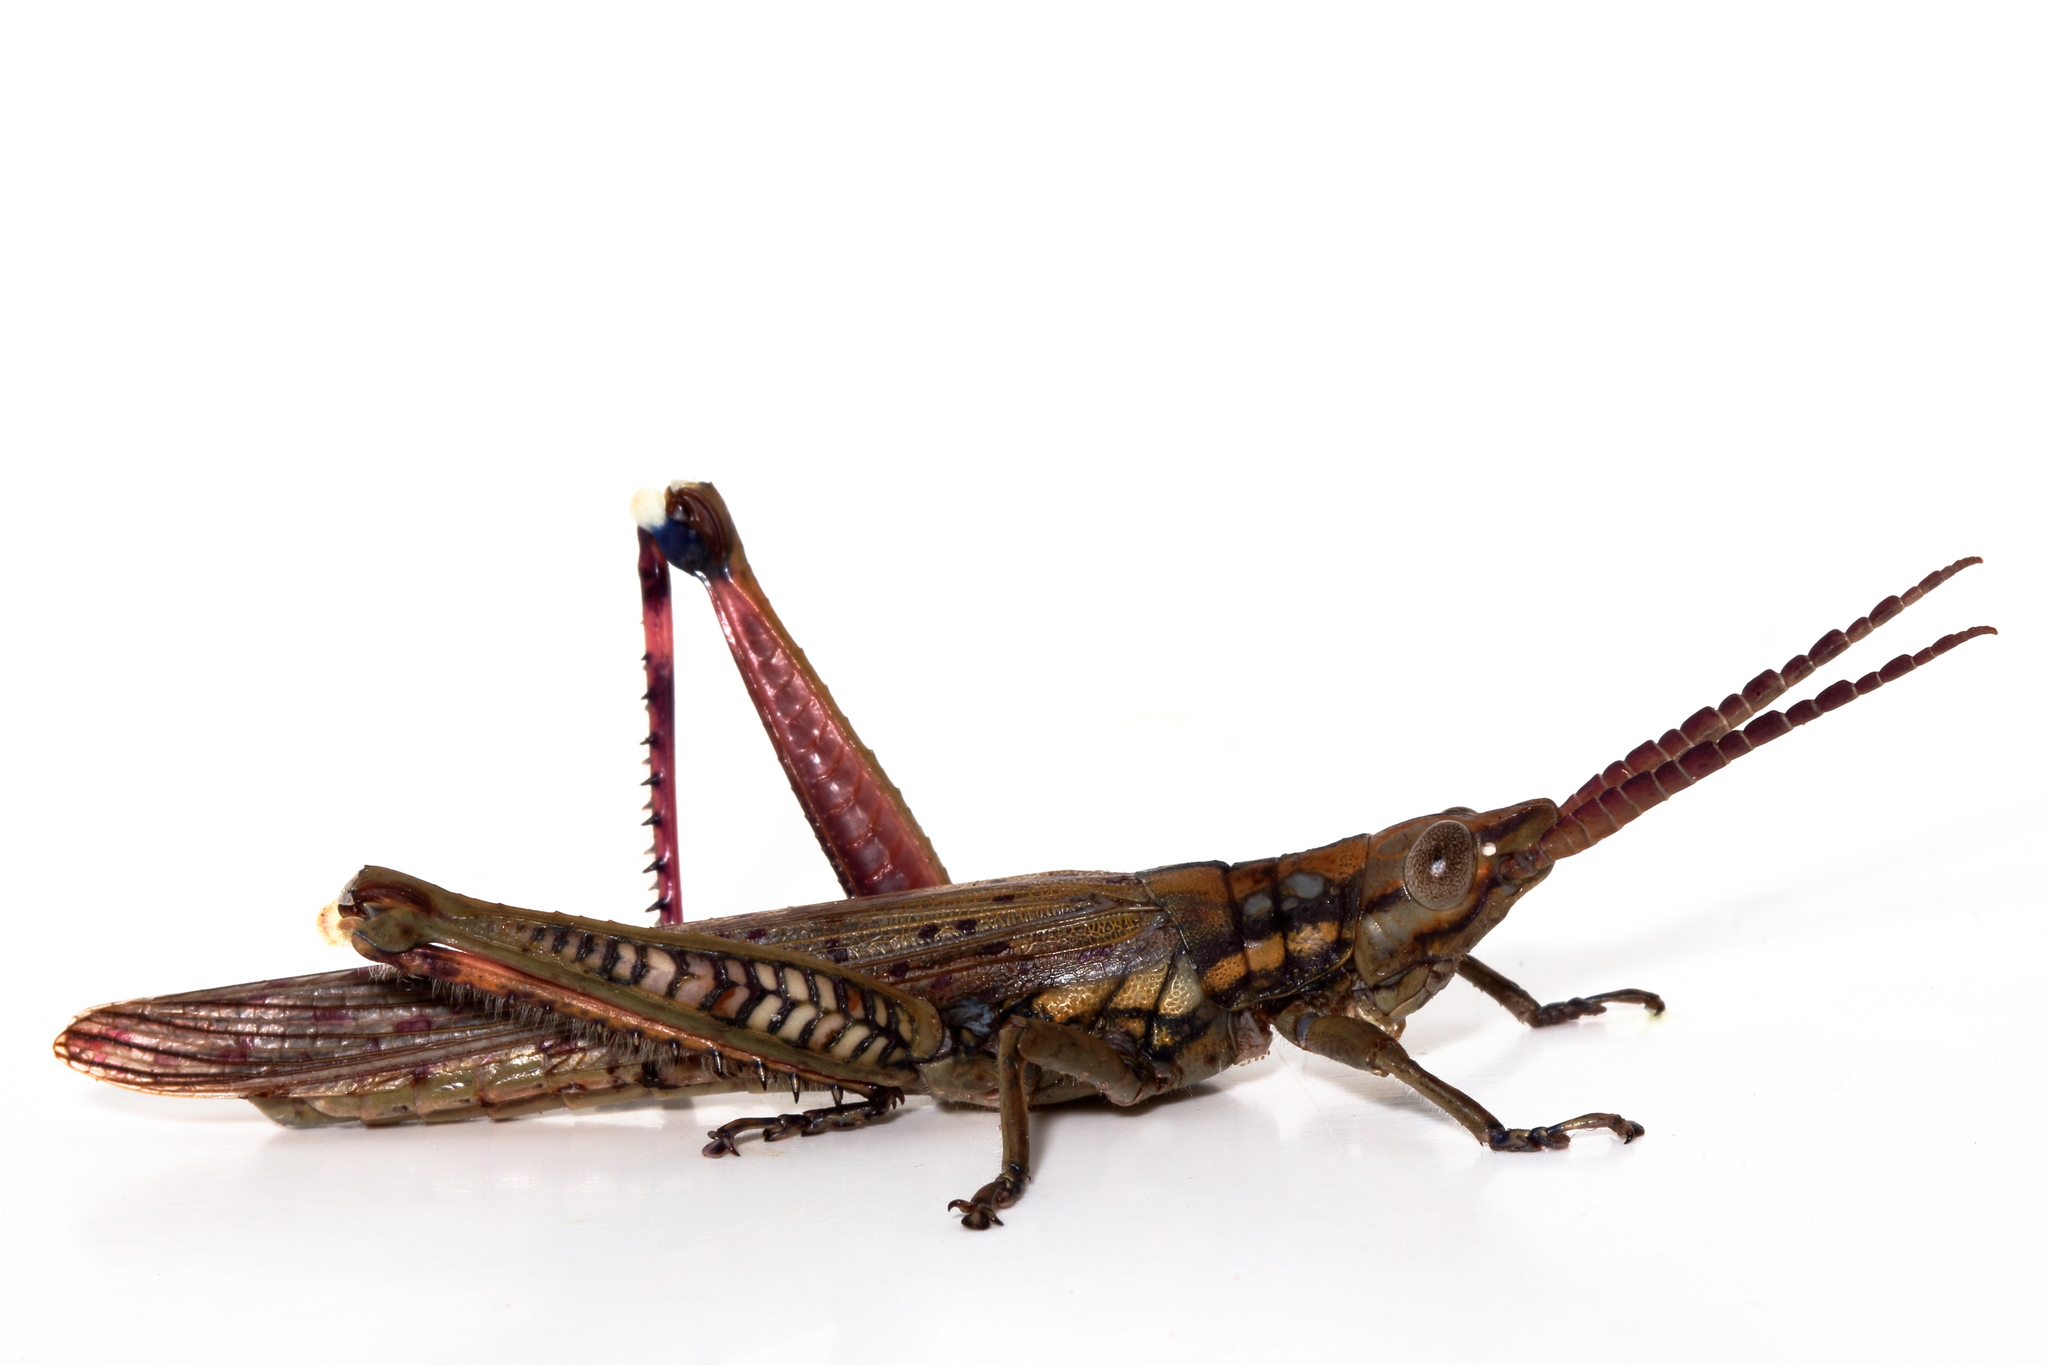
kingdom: Animalia
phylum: Arthropoda
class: Insecta
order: Orthoptera
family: Acrididae
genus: Macrolobalia
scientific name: Macrolobalia ocellata
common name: Gaudy acacia grasshopper
